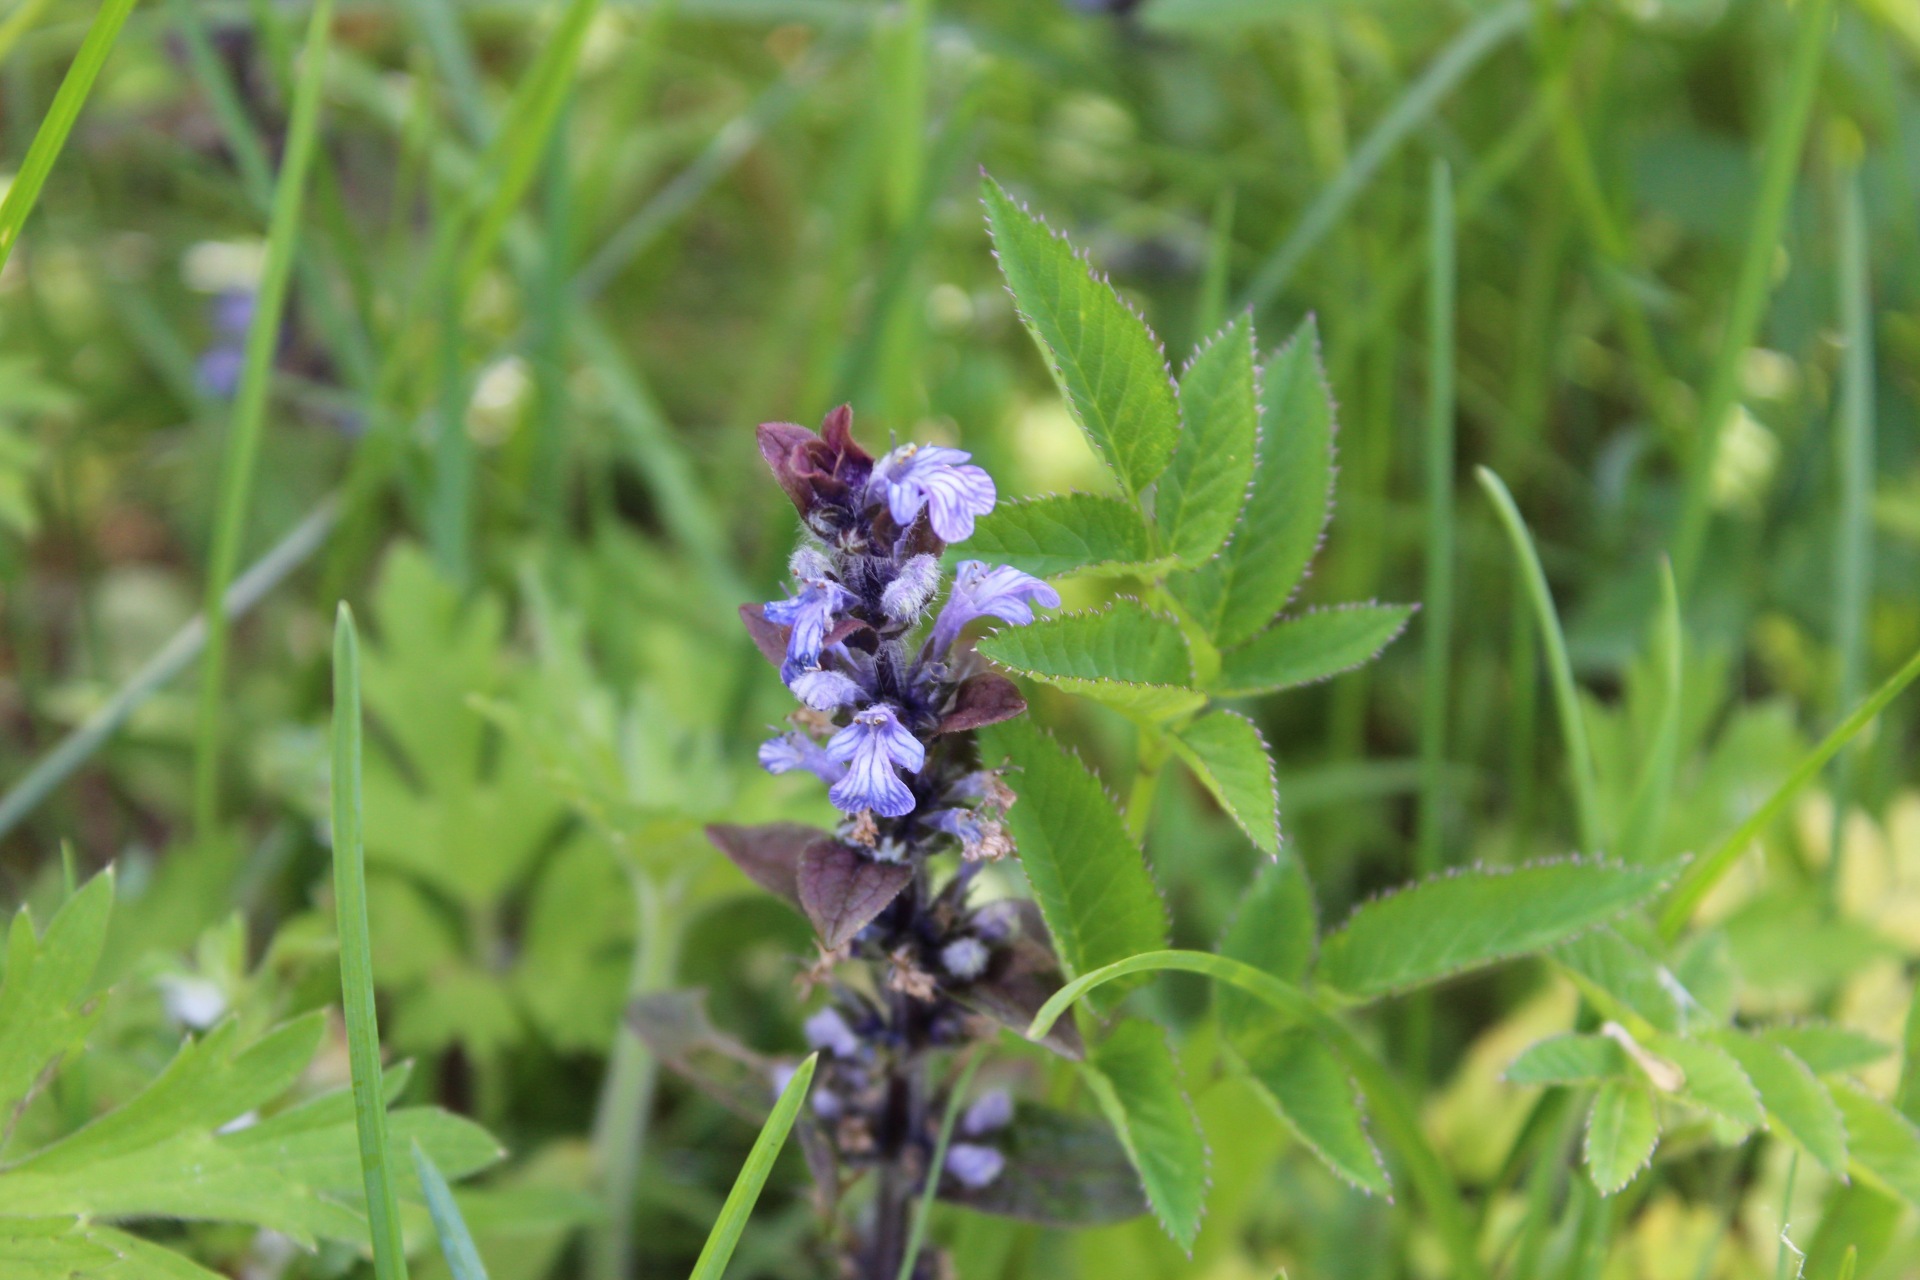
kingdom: Plantae
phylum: Tracheophyta
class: Magnoliopsida
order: Lamiales
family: Lamiaceae
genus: Ajuga
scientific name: Ajuga reptans
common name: Bugle
